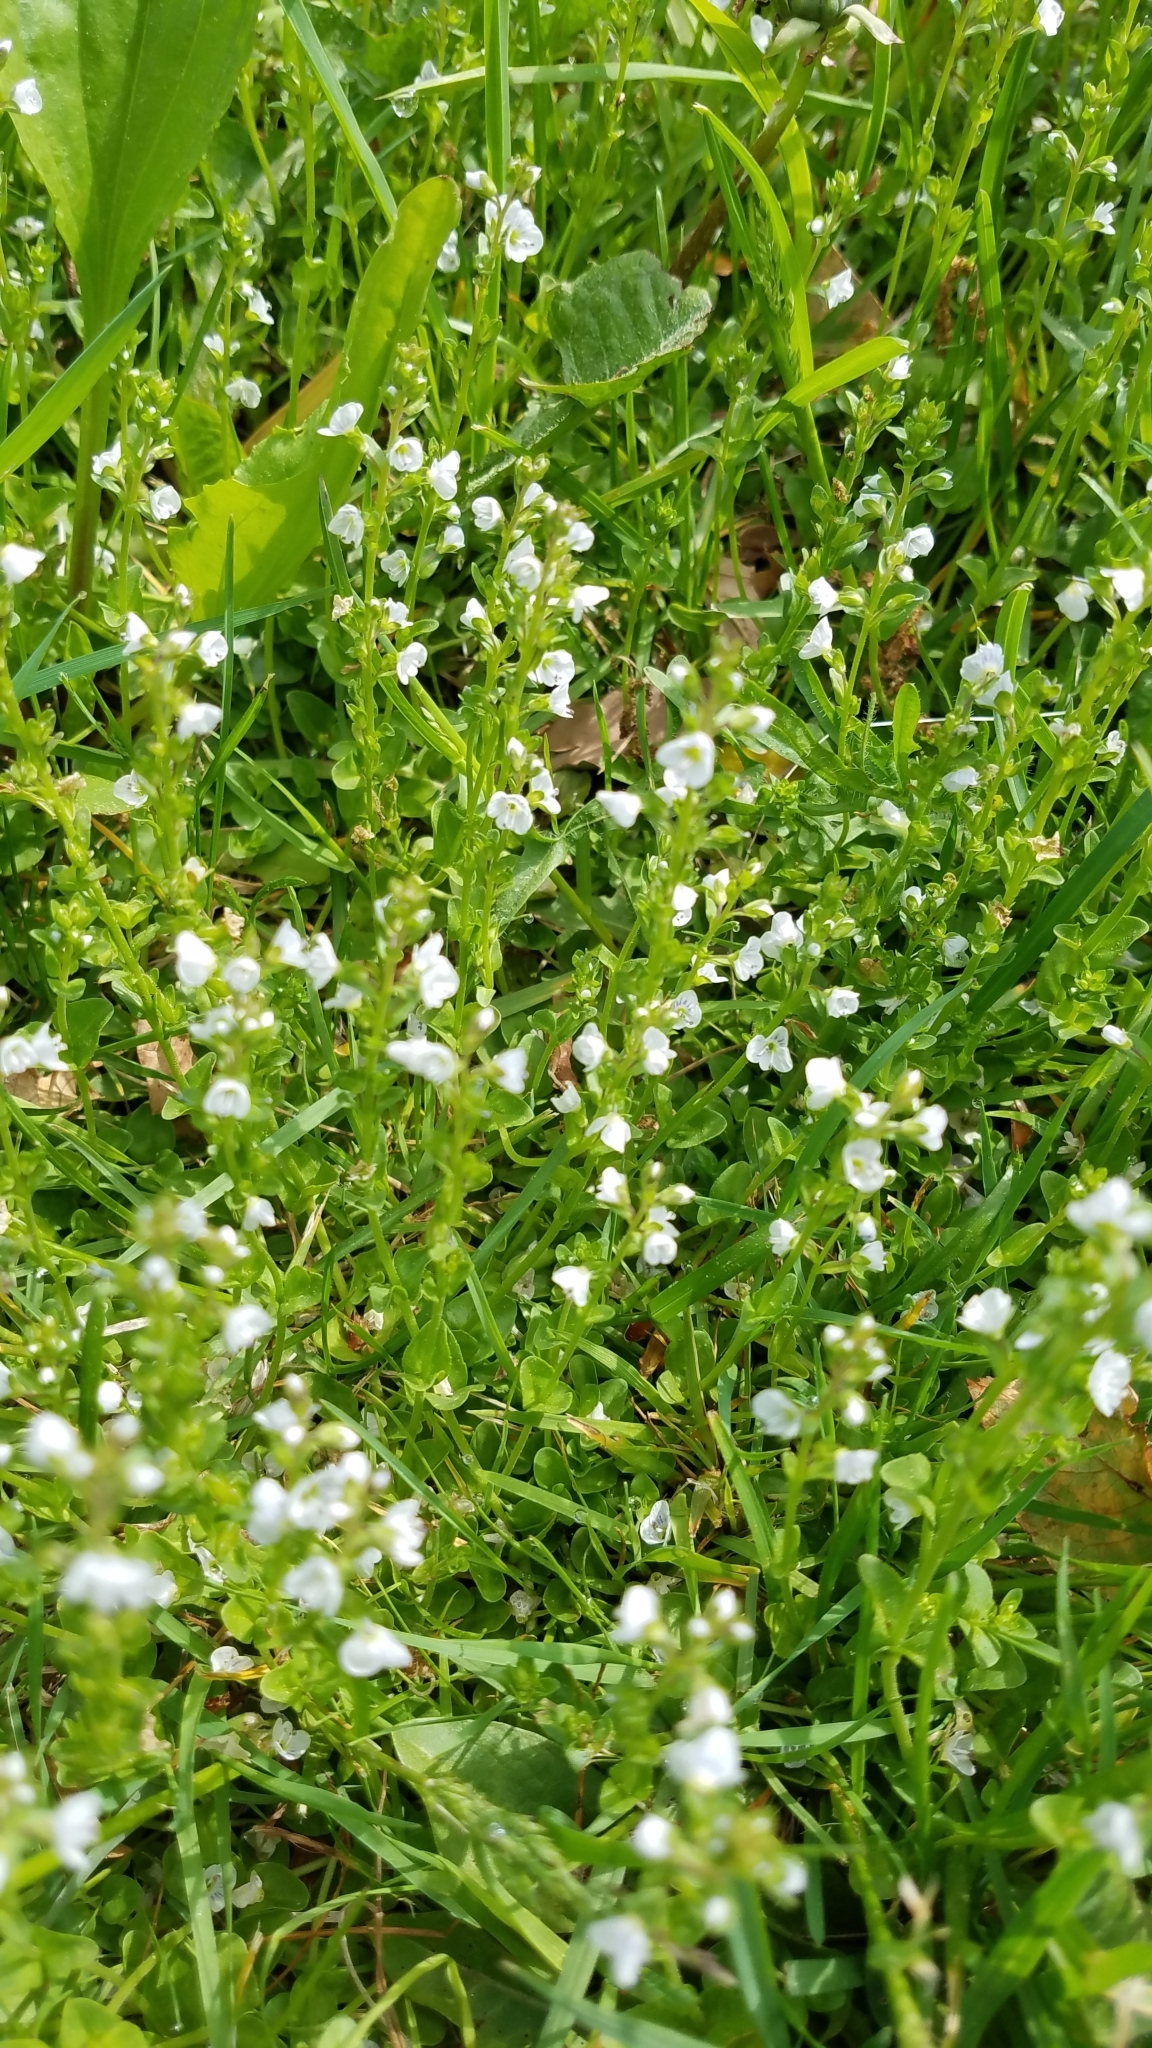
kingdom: Plantae
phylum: Tracheophyta
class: Magnoliopsida
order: Lamiales
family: Plantaginaceae
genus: Veronica
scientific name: Veronica serpyllifolia
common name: Thyme-leaved speedwell
